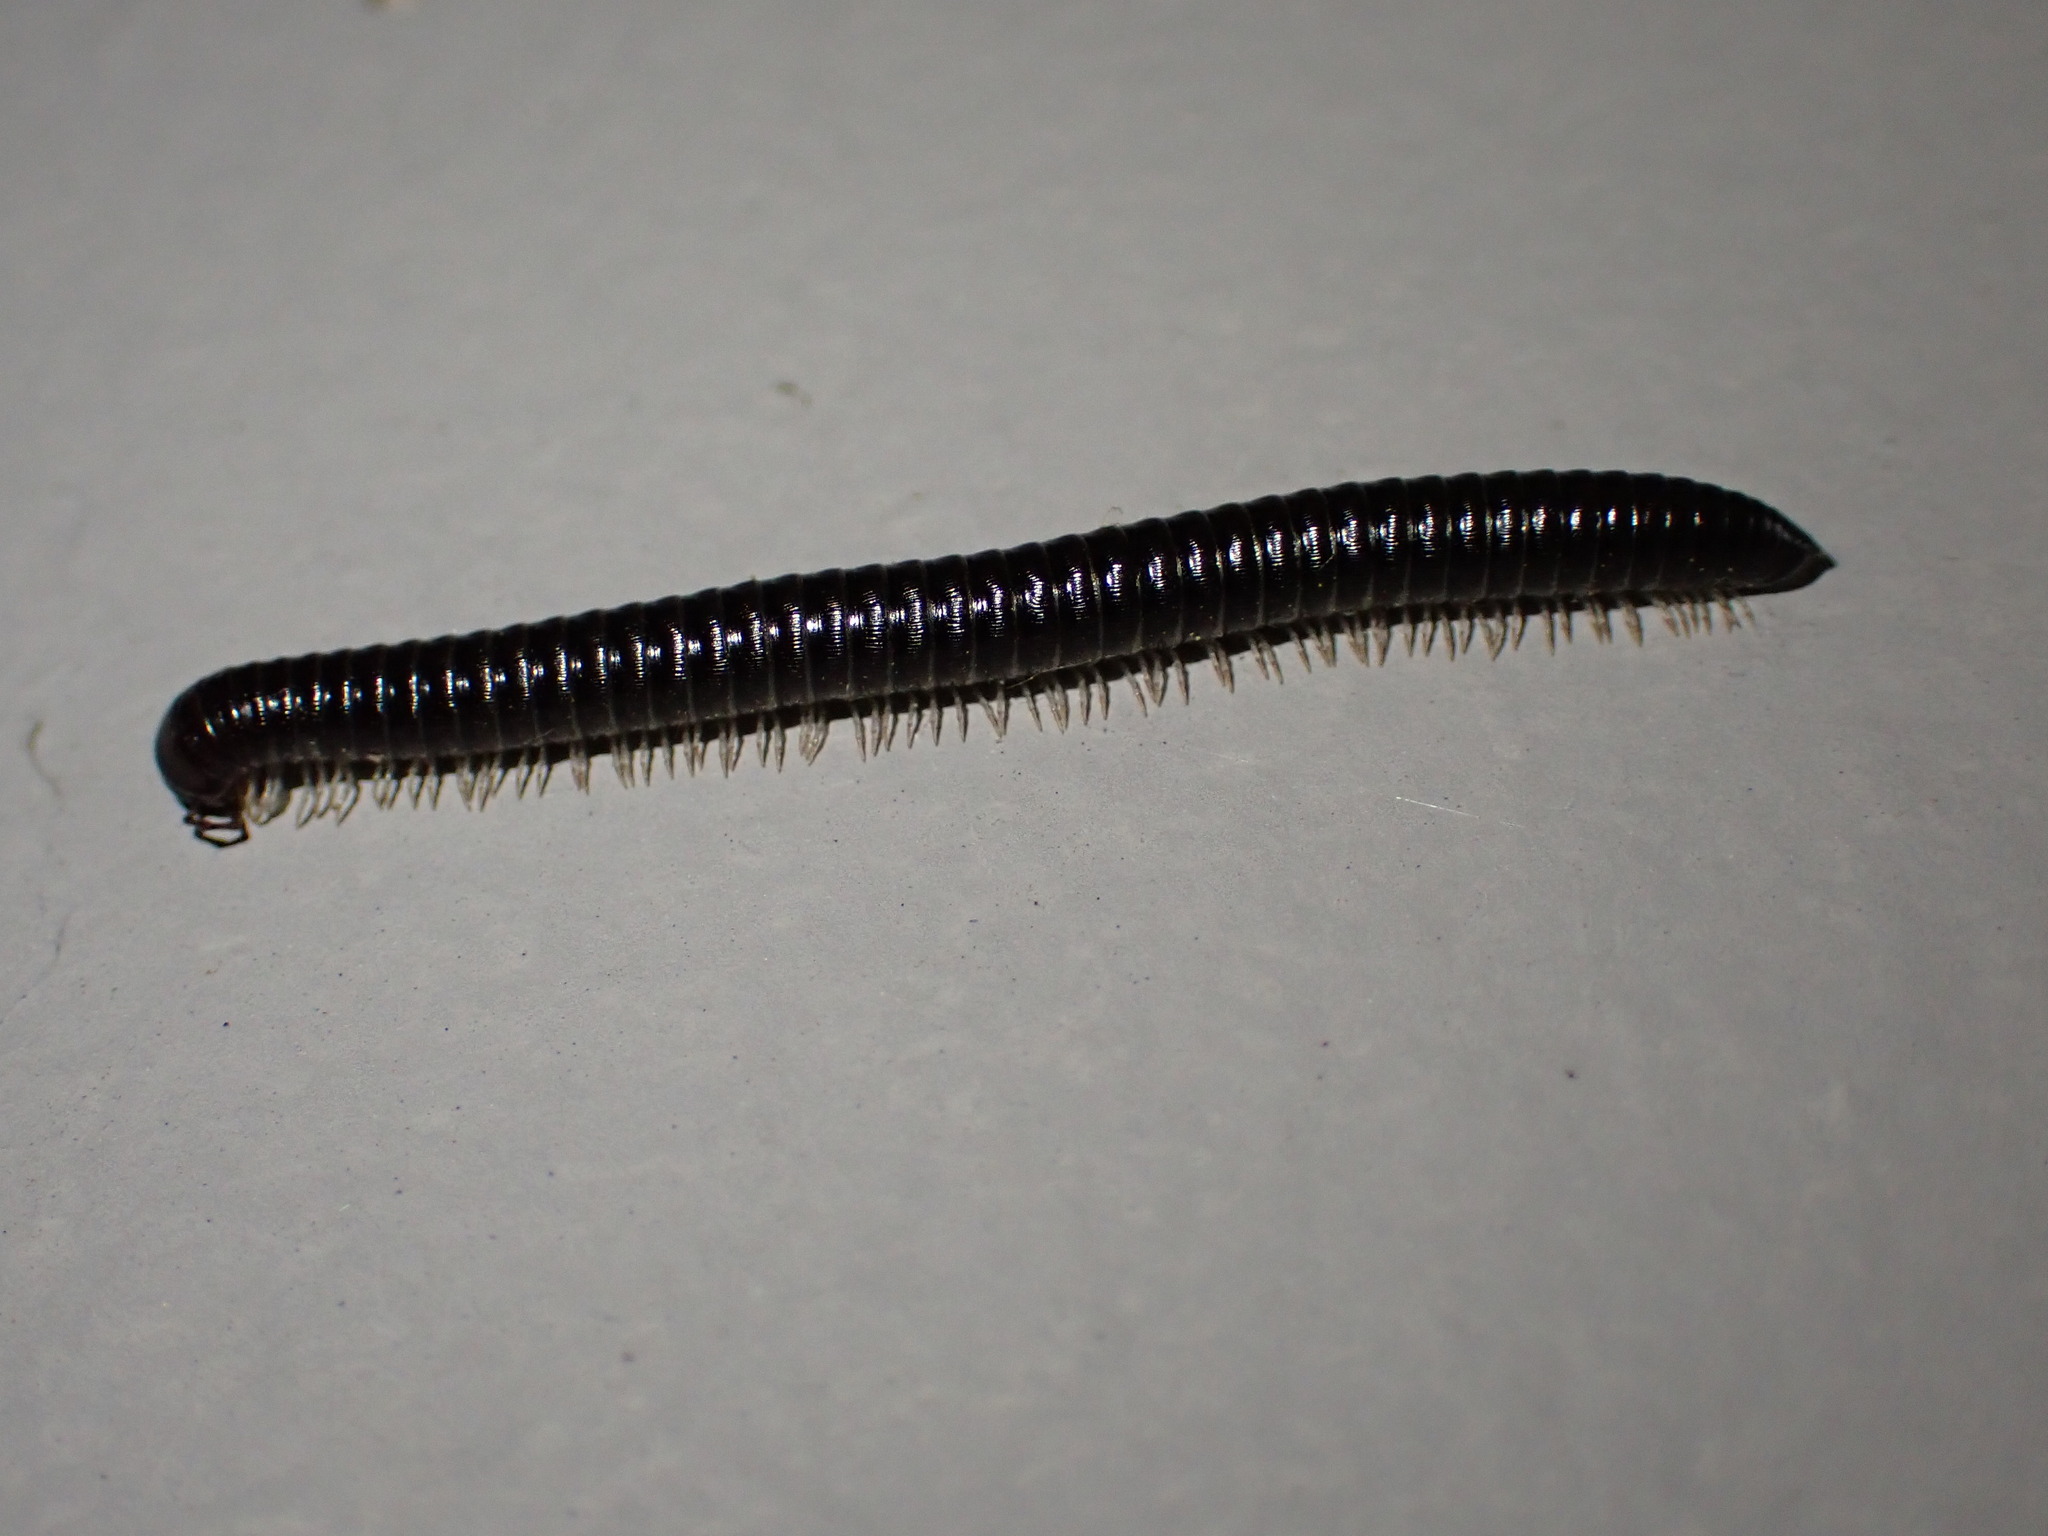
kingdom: Animalia
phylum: Arthropoda
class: Diplopoda
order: Julida
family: Julidae
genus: Tachypodoiulus
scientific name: Tachypodoiulus niger
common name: White-legged snake millipede
